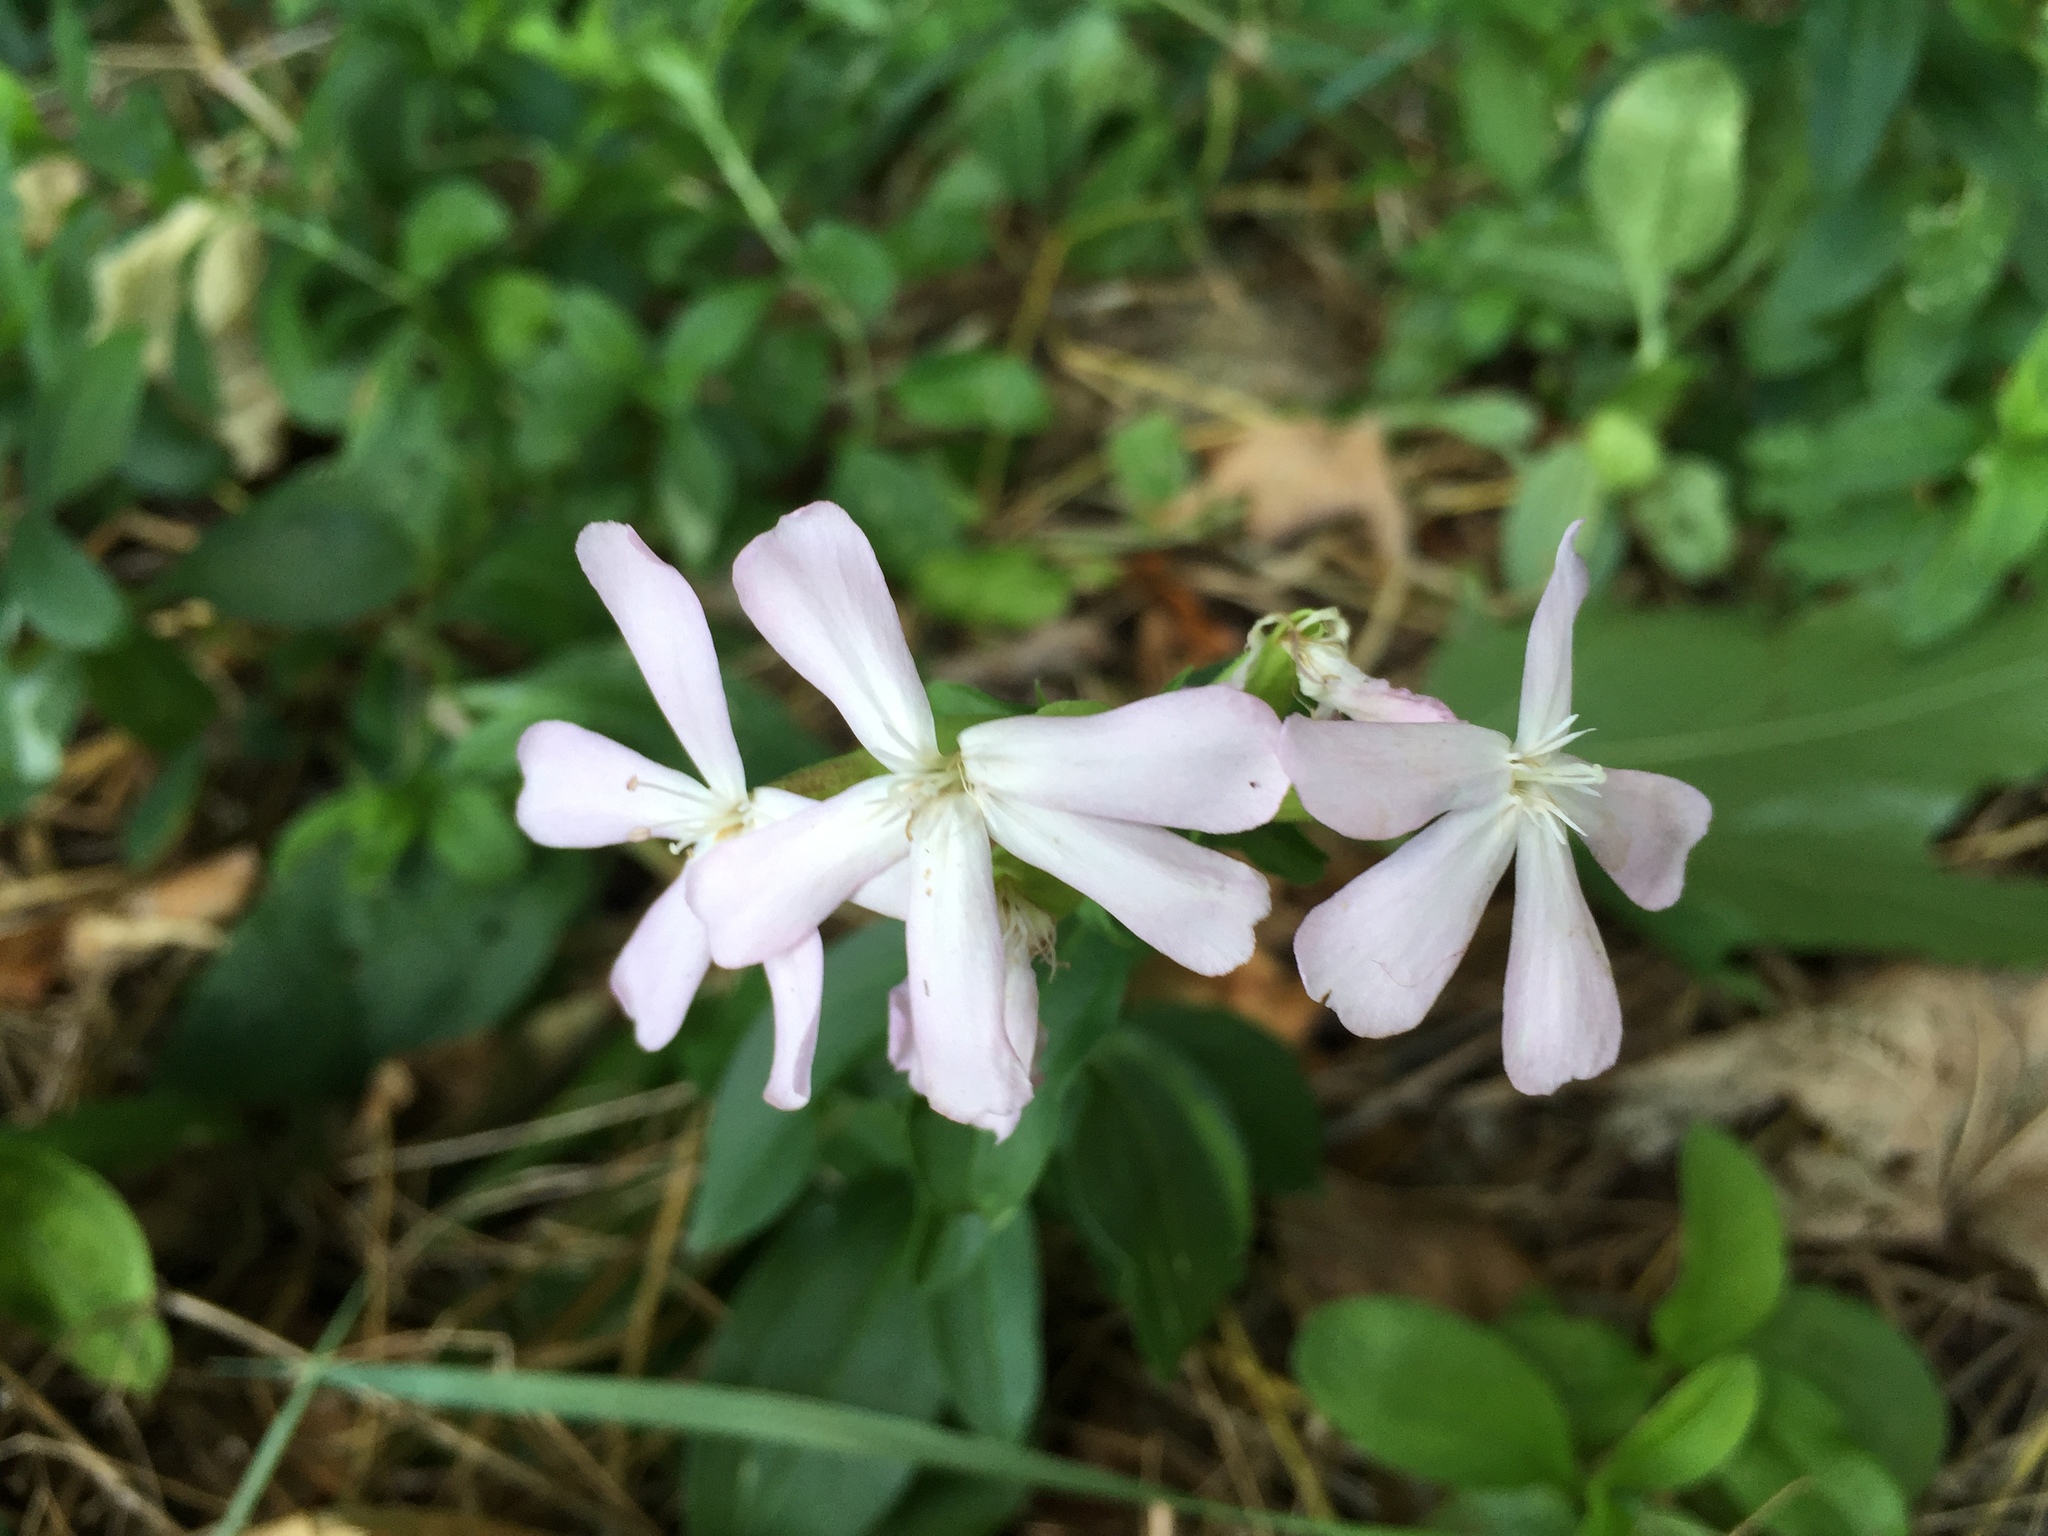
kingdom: Plantae
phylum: Tracheophyta
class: Magnoliopsida
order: Caryophyllales
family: Caryophyllaceae
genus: Saponaria
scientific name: Saponaria officinalis
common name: Soapwort
